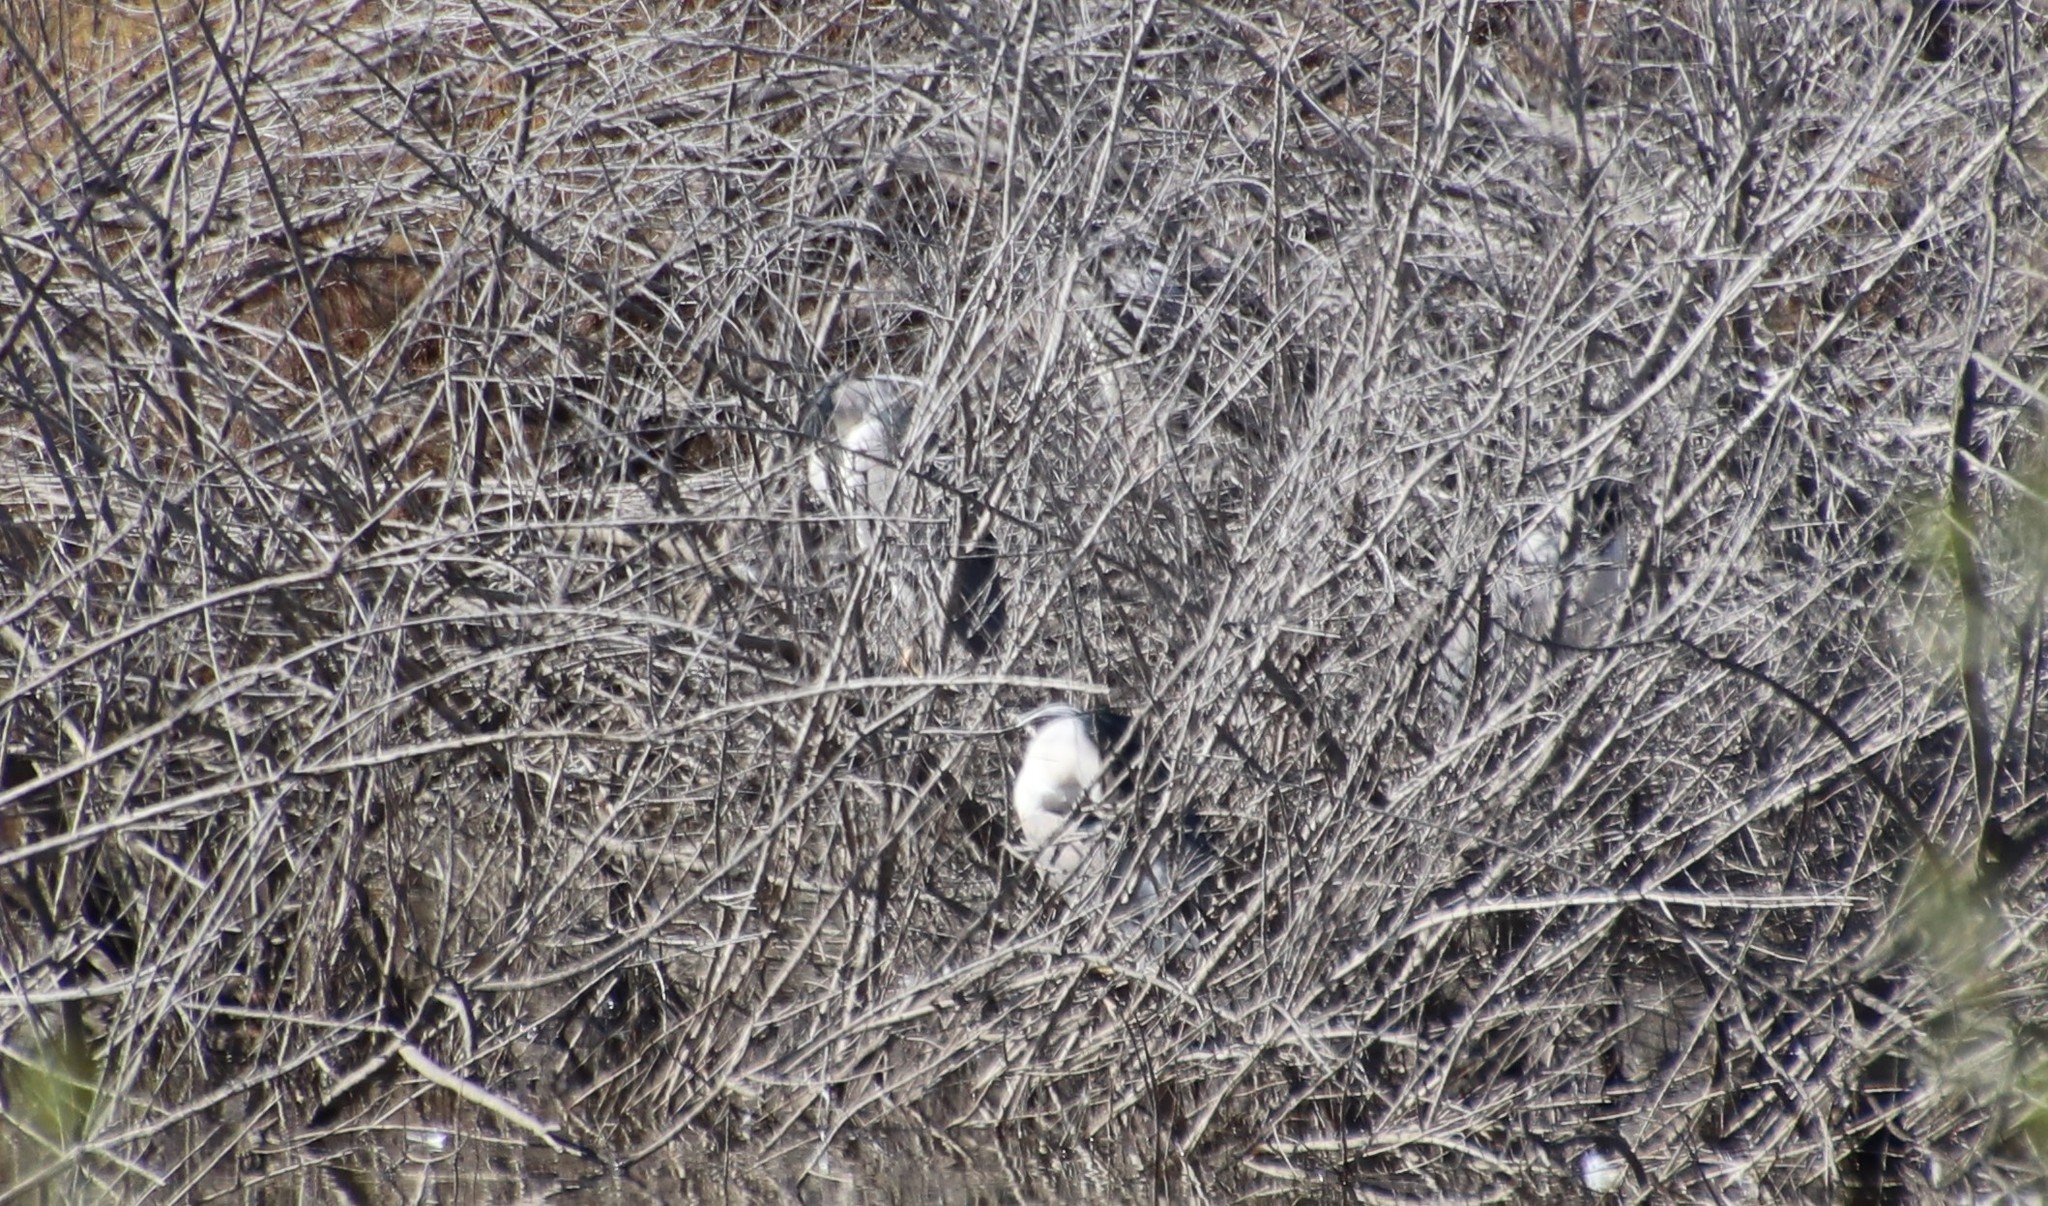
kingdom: Animalia
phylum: Chordata
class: Aves
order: Pelecaniformes
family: Ardeidae
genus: Nycticorax
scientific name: Nycticorax nycticorax
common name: Black-crowned night heron
